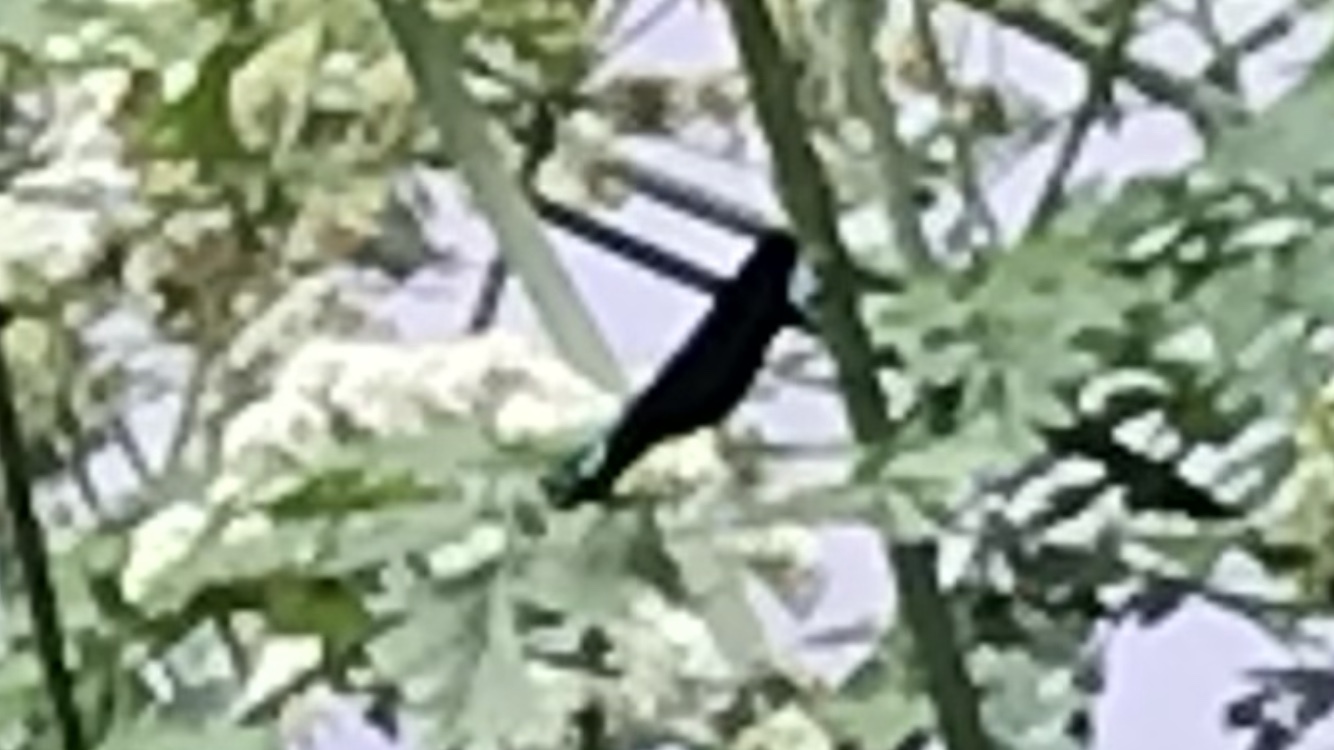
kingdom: Animalia
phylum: Arthropoda
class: Insecta
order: Odonata
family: Calopterygidae
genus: Calopteryx
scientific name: Calopteryx virgo
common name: Beautiful demoiselle
